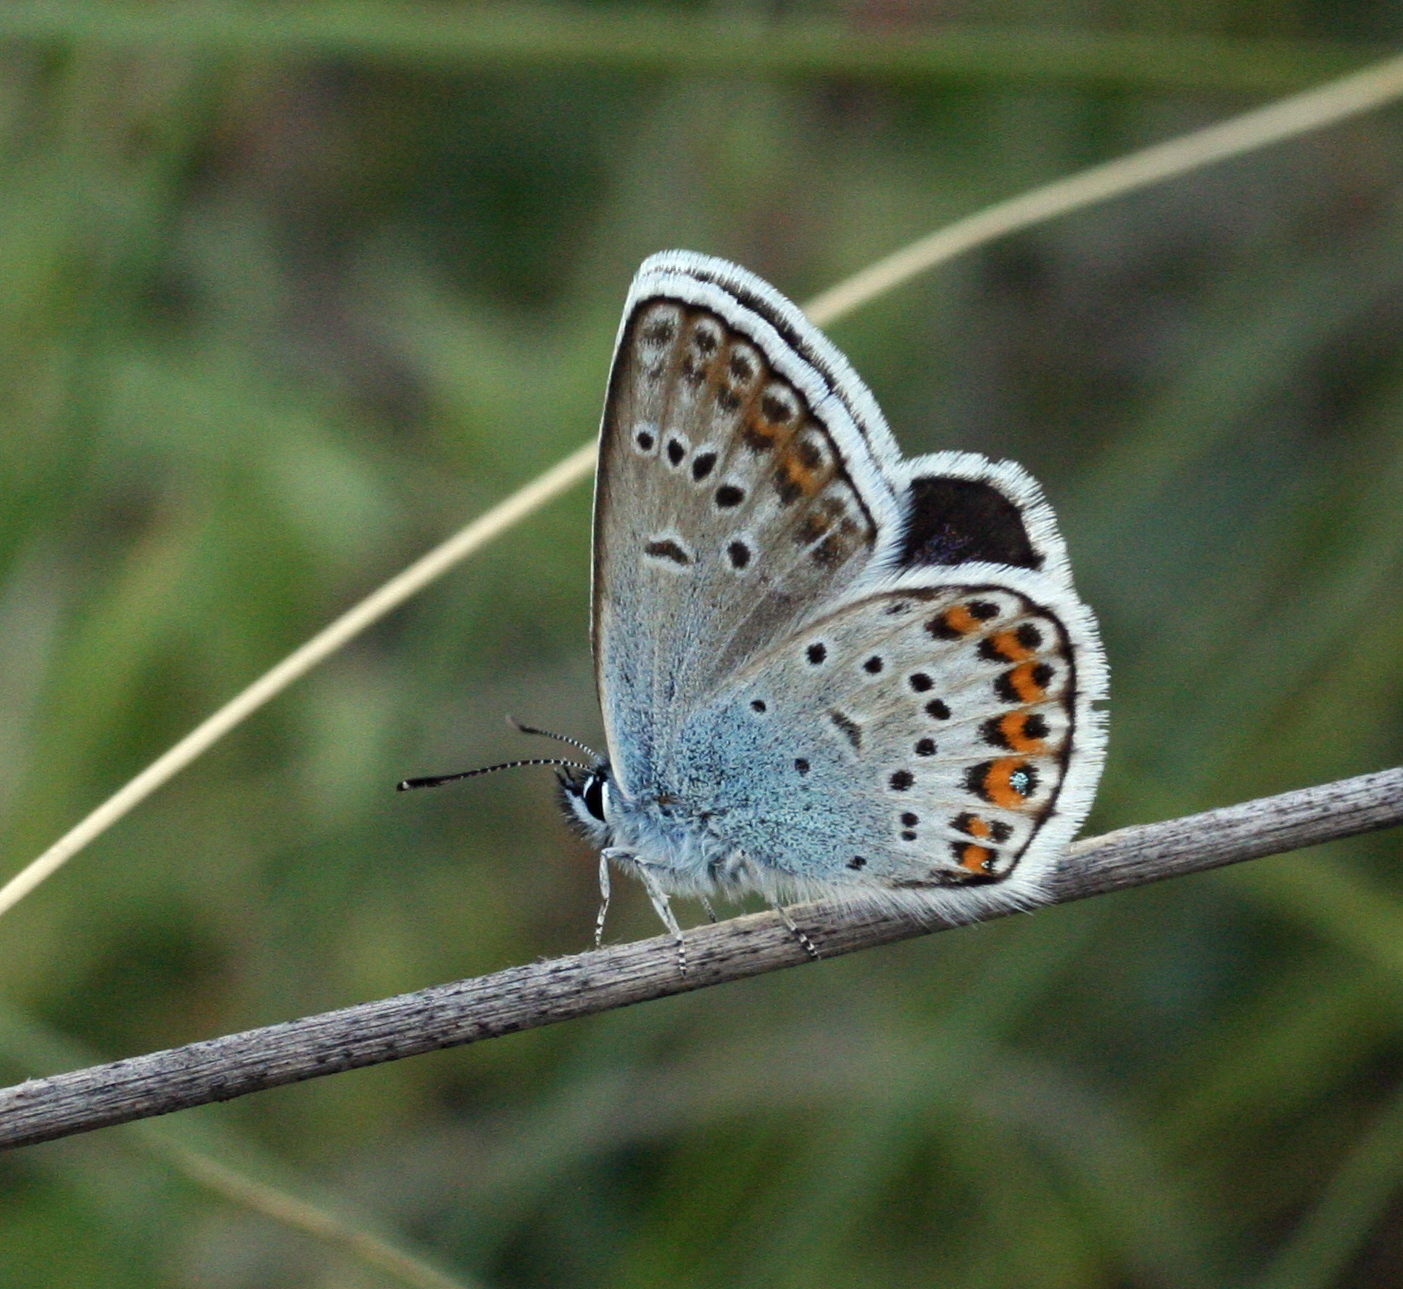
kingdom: Animalia
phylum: Arthropoda
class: Insecta
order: Lepidoptera
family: Lycaenidae
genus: Plebejus
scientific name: Plebejus argus
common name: Silver-studded blue
